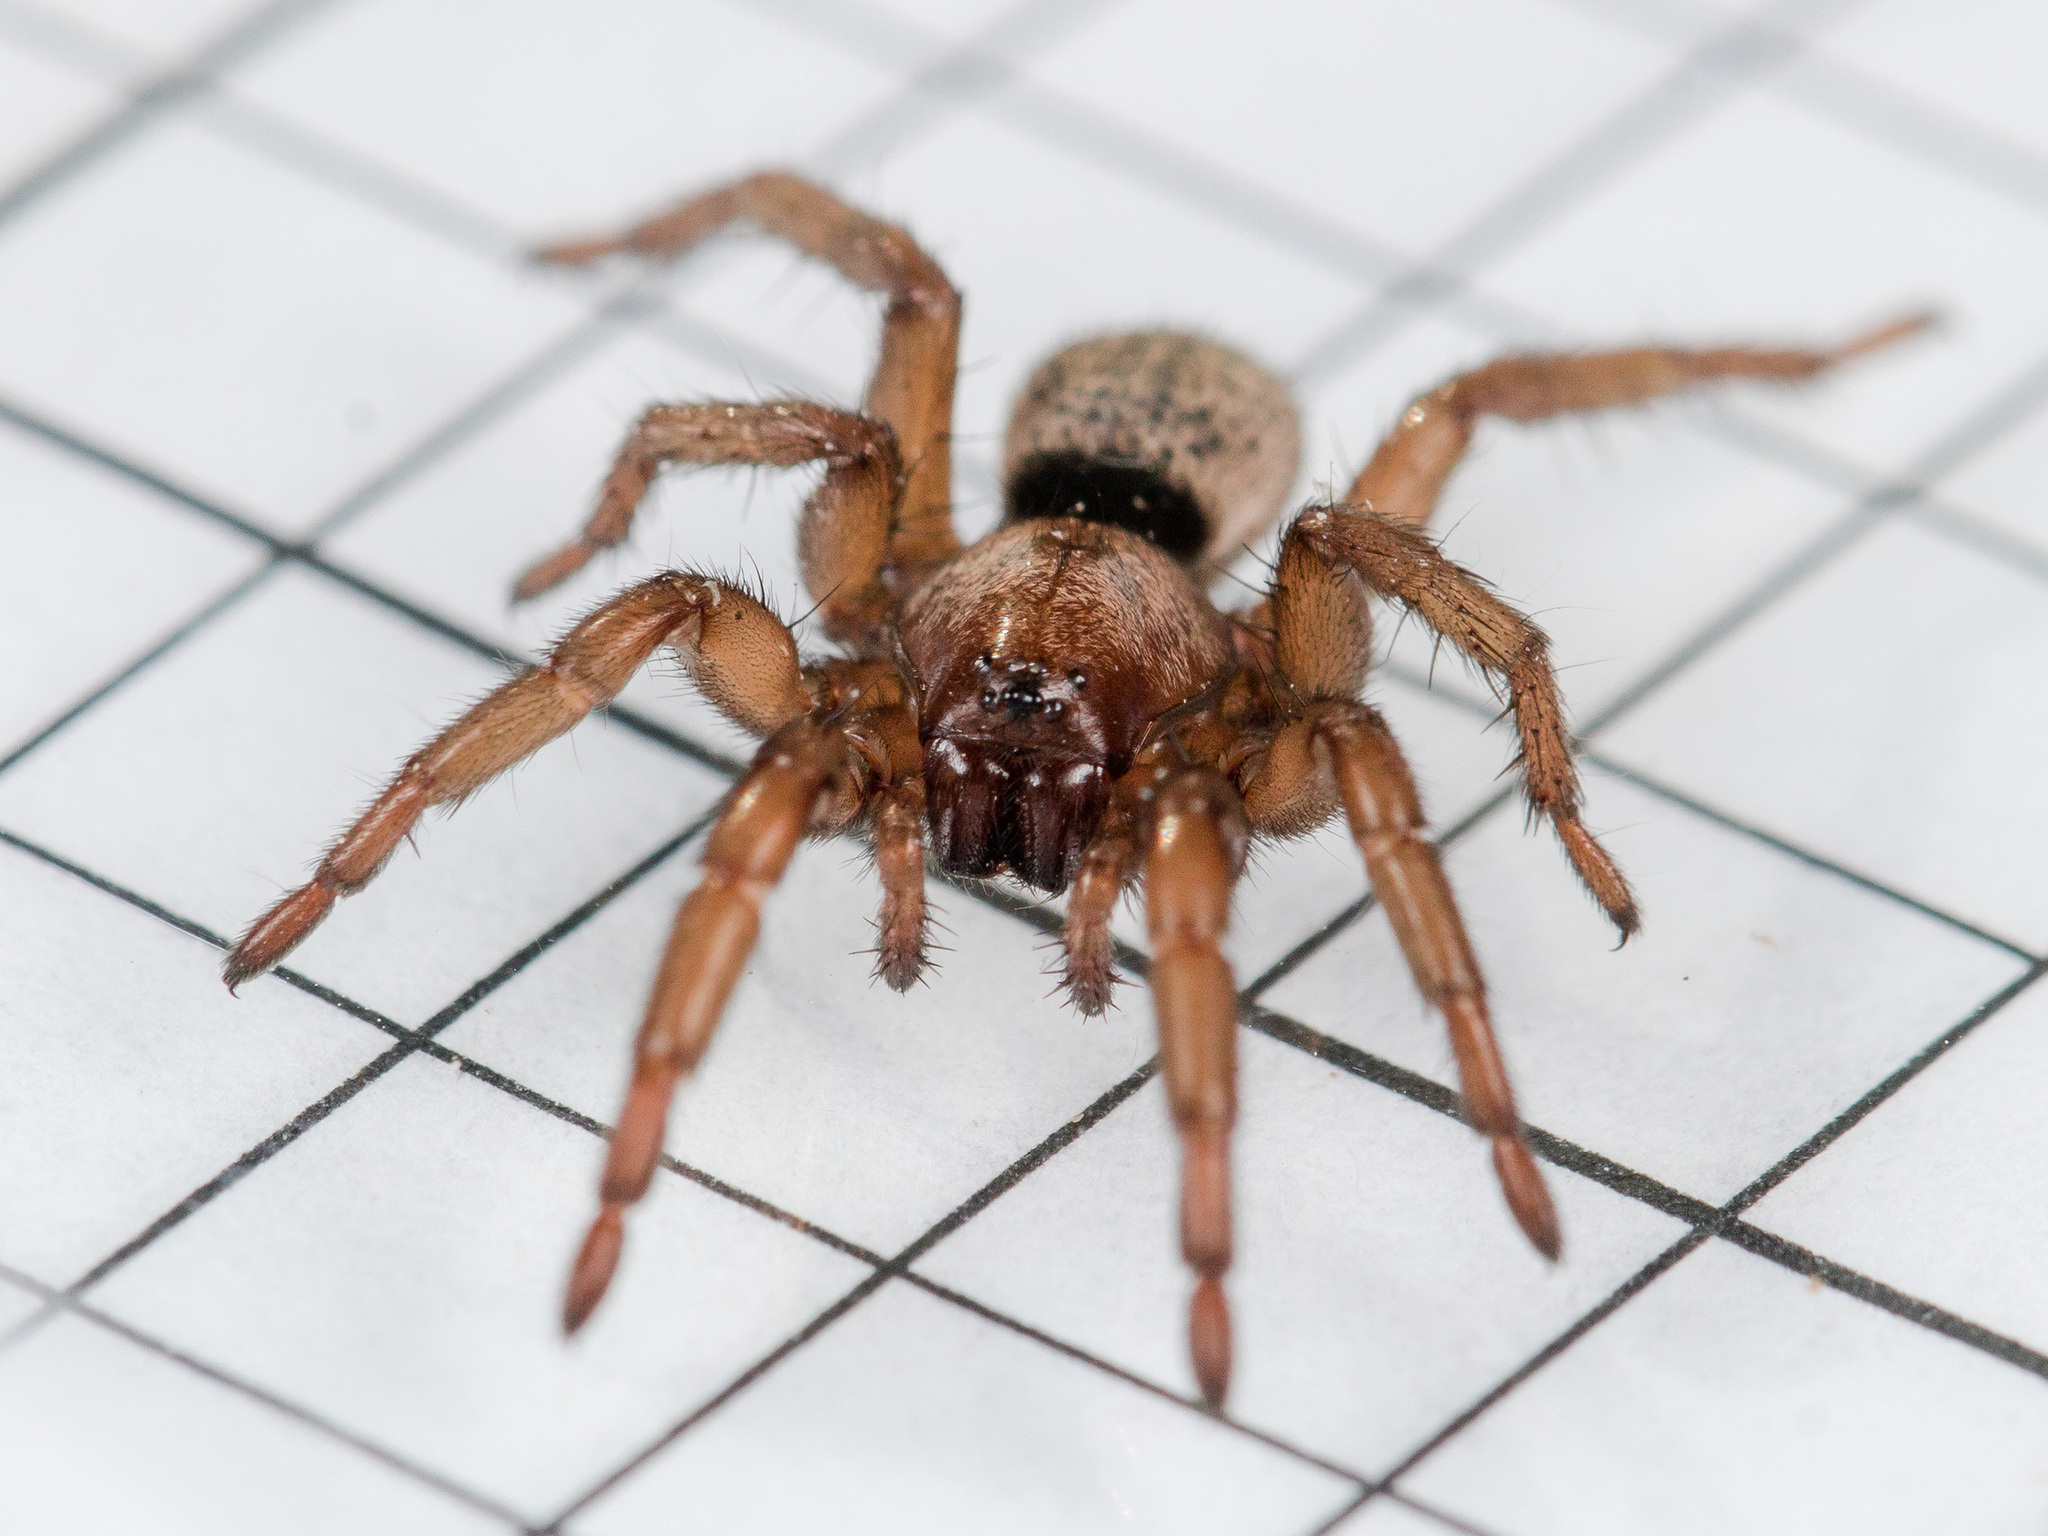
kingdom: Animalia
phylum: Arthropoda
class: Arachnida
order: Araneae
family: Gnaphosidae
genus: Gnaphosa
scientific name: Gnaphosa mongolica
